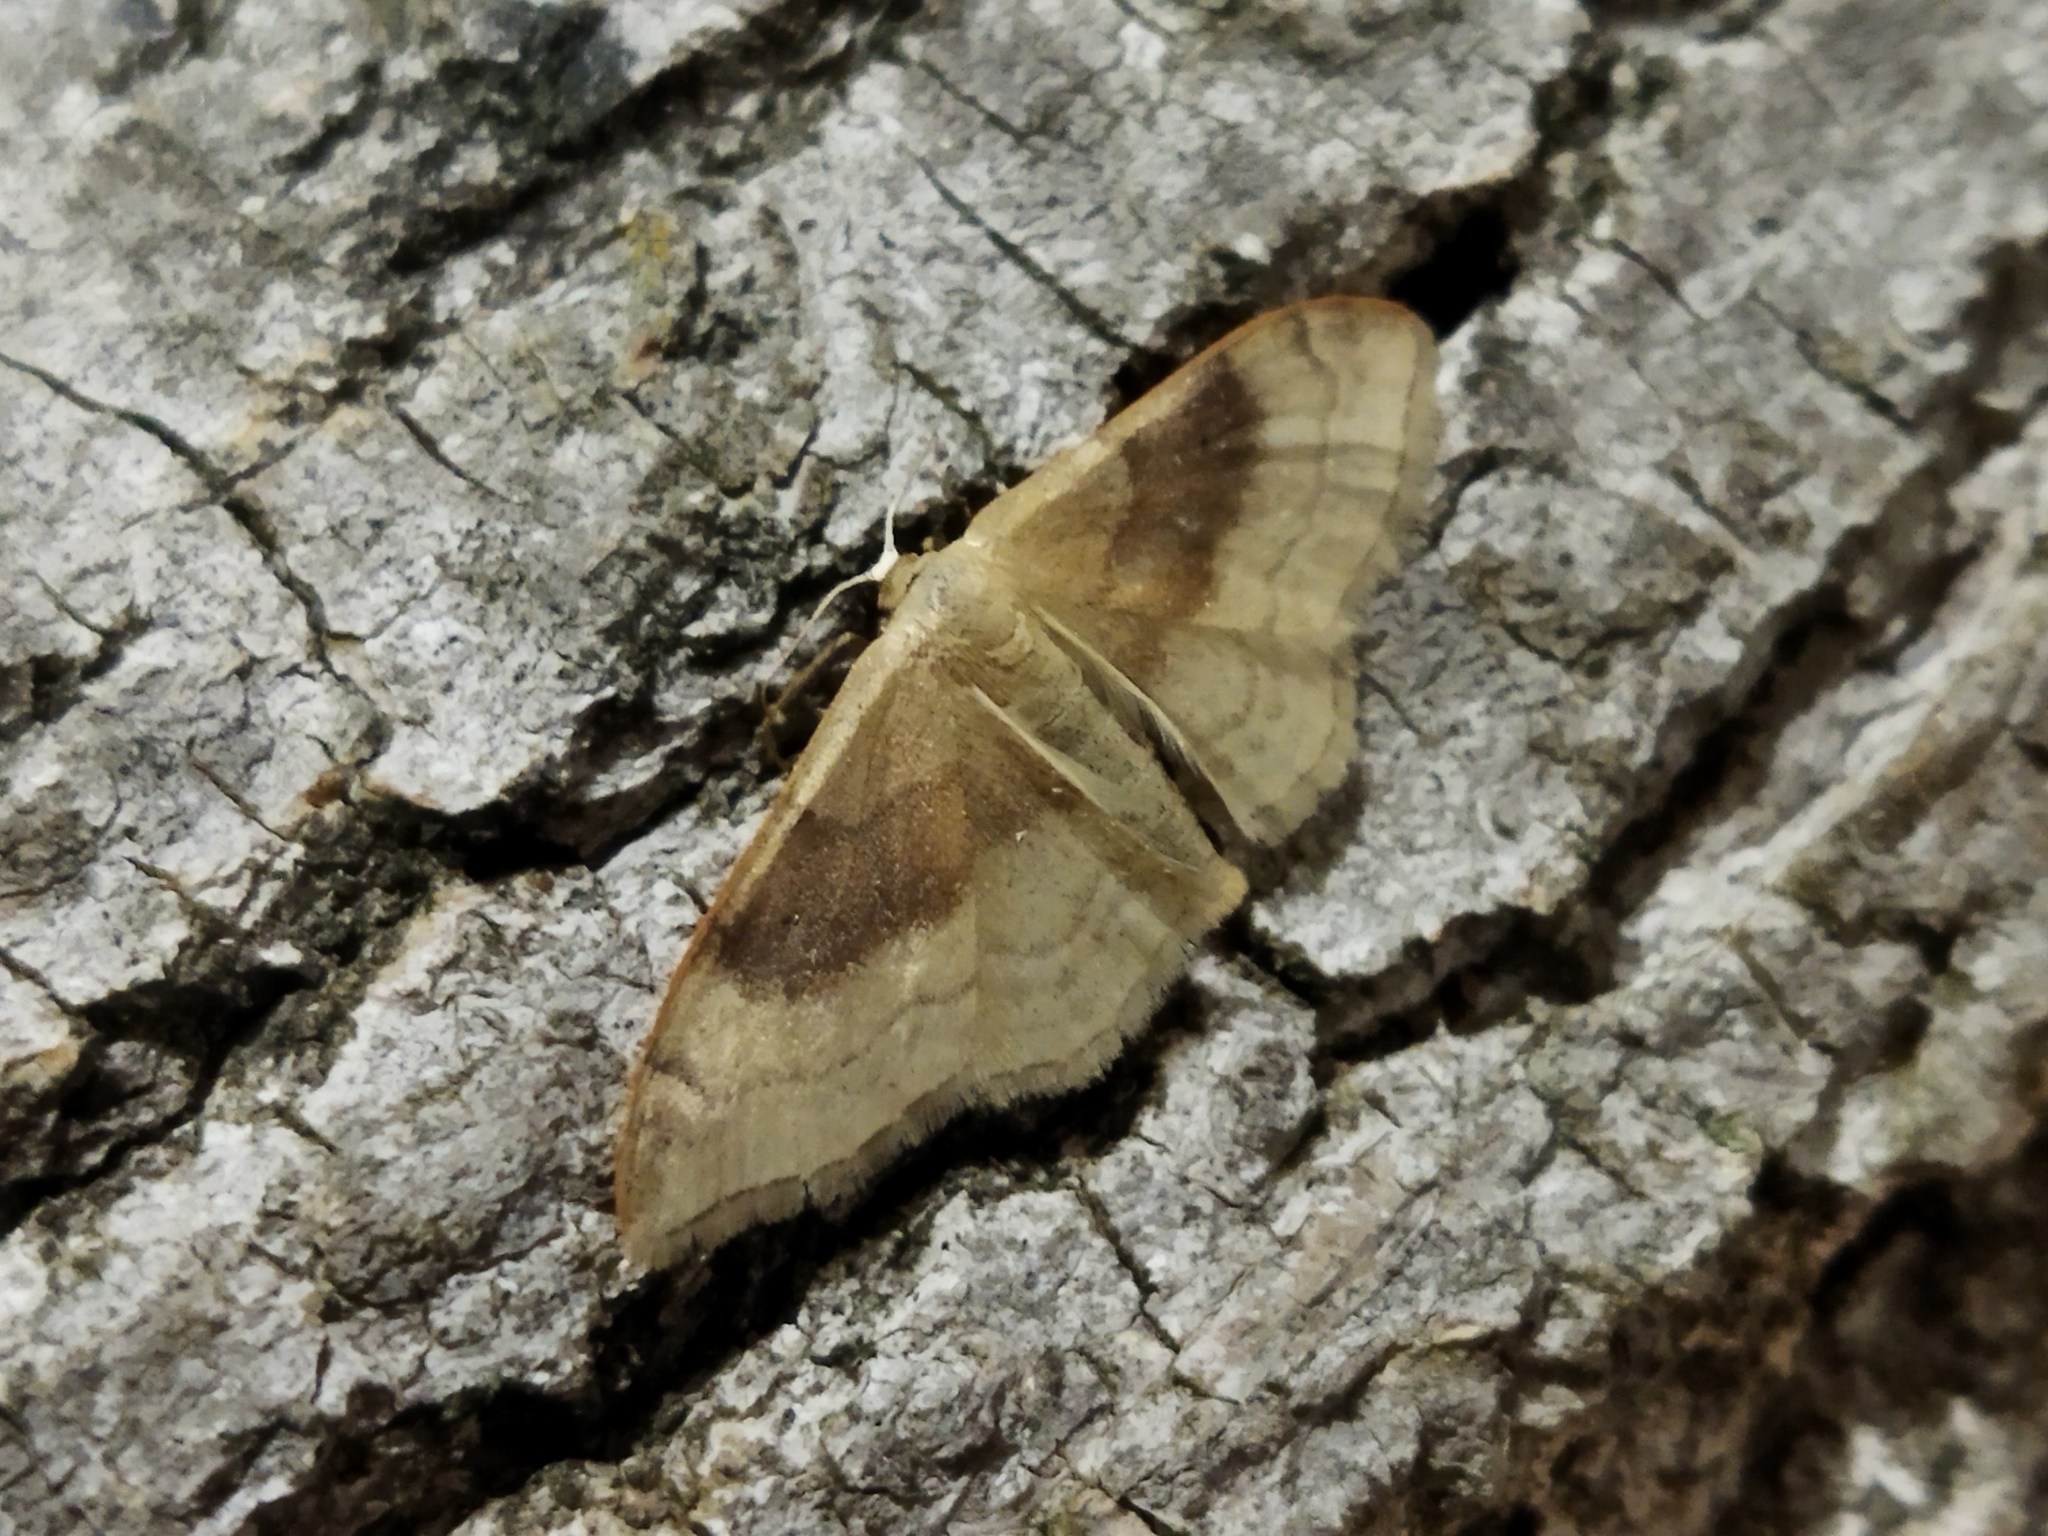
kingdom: Animalia
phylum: Arthropoda
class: Insecta
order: Lepidoptera
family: Geometridae
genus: Idaea
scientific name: Idaea degeneraria
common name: Portland ribbon wave
